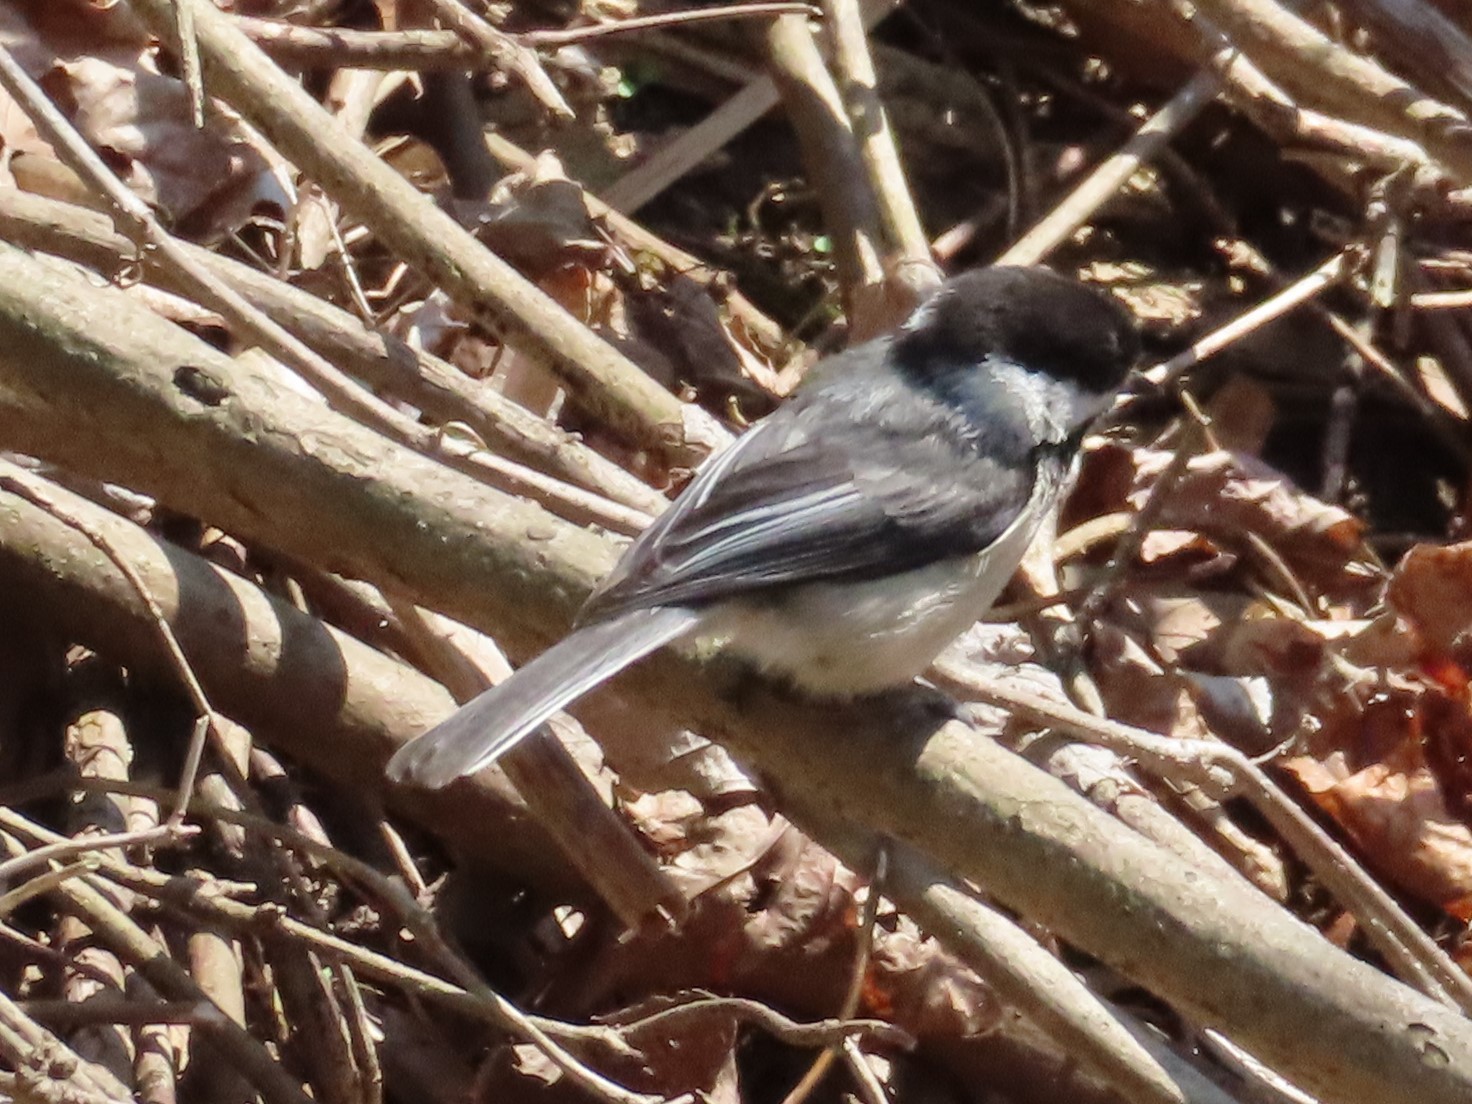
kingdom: Animalia
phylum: Chordata
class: Aves
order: Passeriformes
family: Paridae
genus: Poecile
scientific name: Poecile atricapillus
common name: Black-capped chickadee
